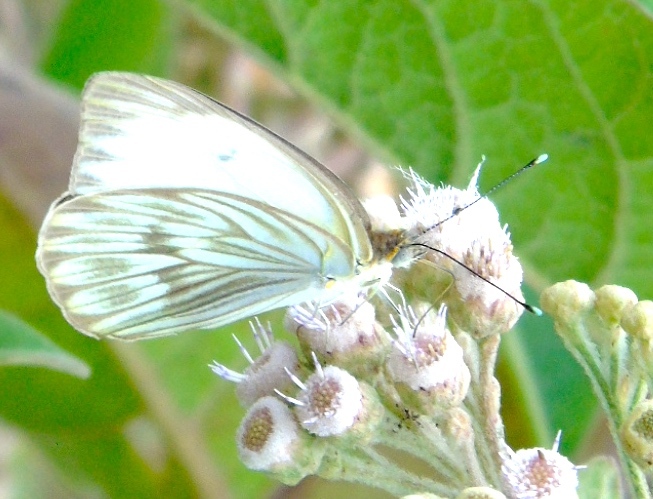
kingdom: Animalia
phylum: Arthropoda
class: Insecta
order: Lepidoptera
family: Pieridae
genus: Ascia
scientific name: Ascia monuste
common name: Great southern white
